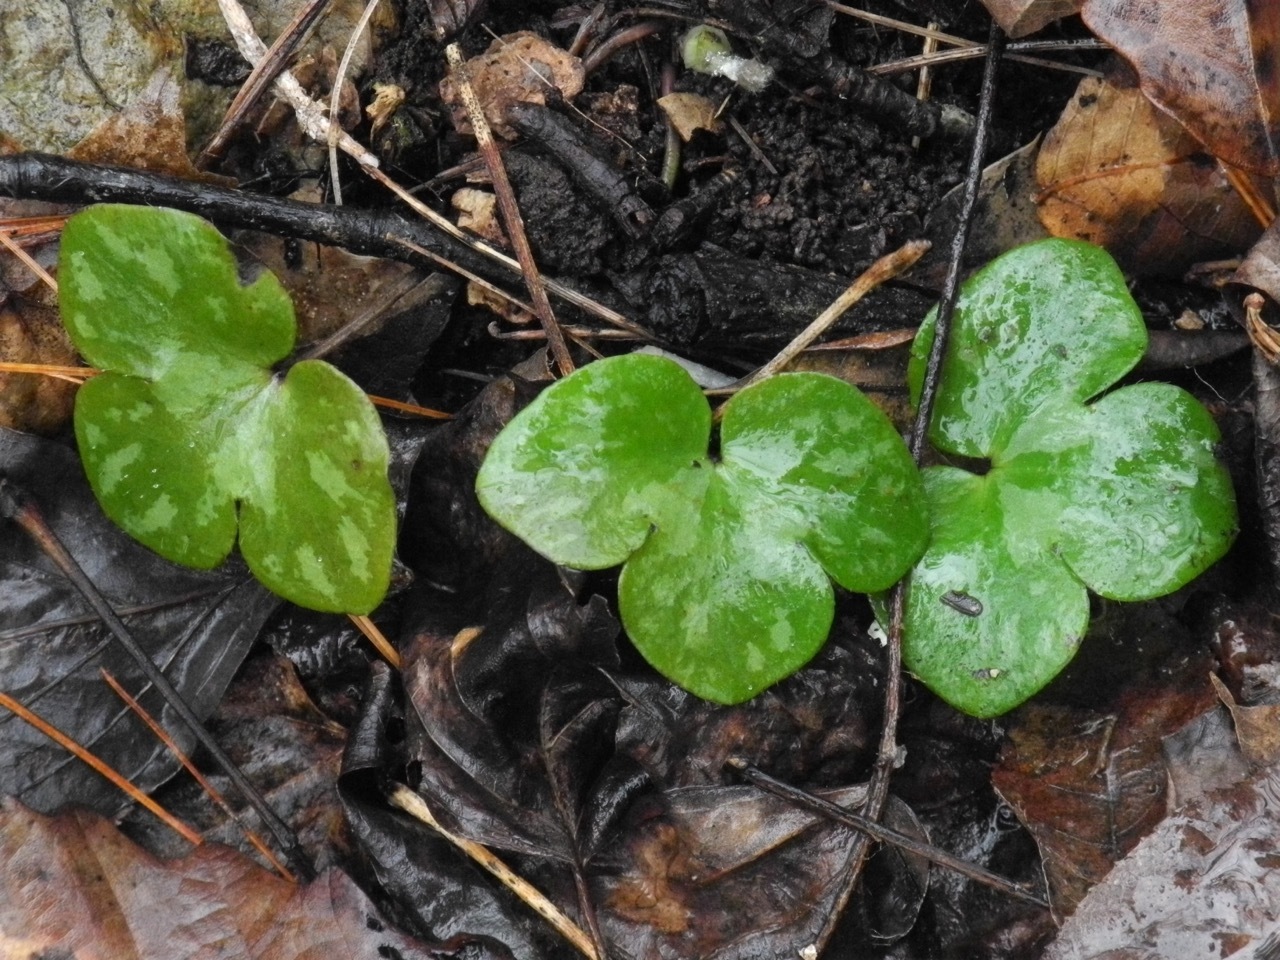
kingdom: Plantae
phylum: Tracheophyta
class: Magnoliopsida
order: Ranunculales
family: Ranunculaceae
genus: Hepatica
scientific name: Hepatica americana
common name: American hepatica
